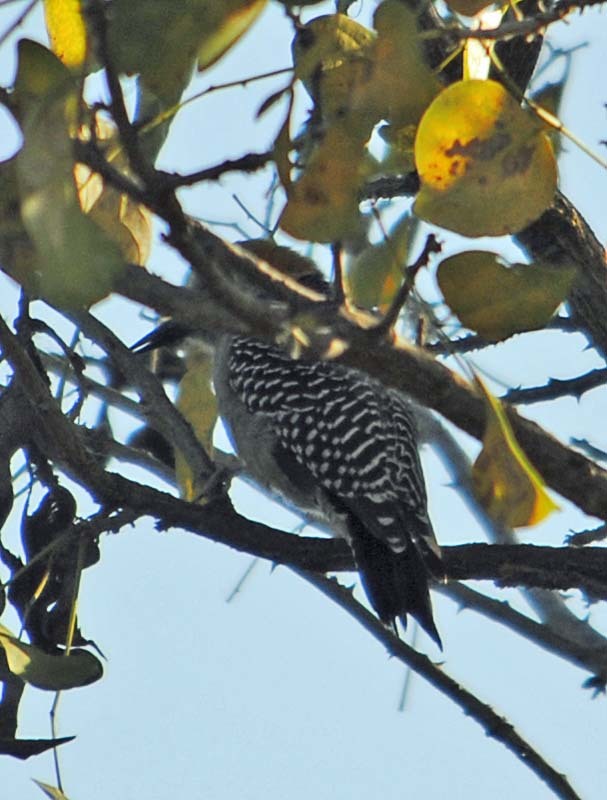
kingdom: Animalia
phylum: Chordata
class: Aves
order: Piciformes
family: Picidae
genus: Melanerpes
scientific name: Melanerpes aurifrons
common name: Golden-fronted woodpecker
